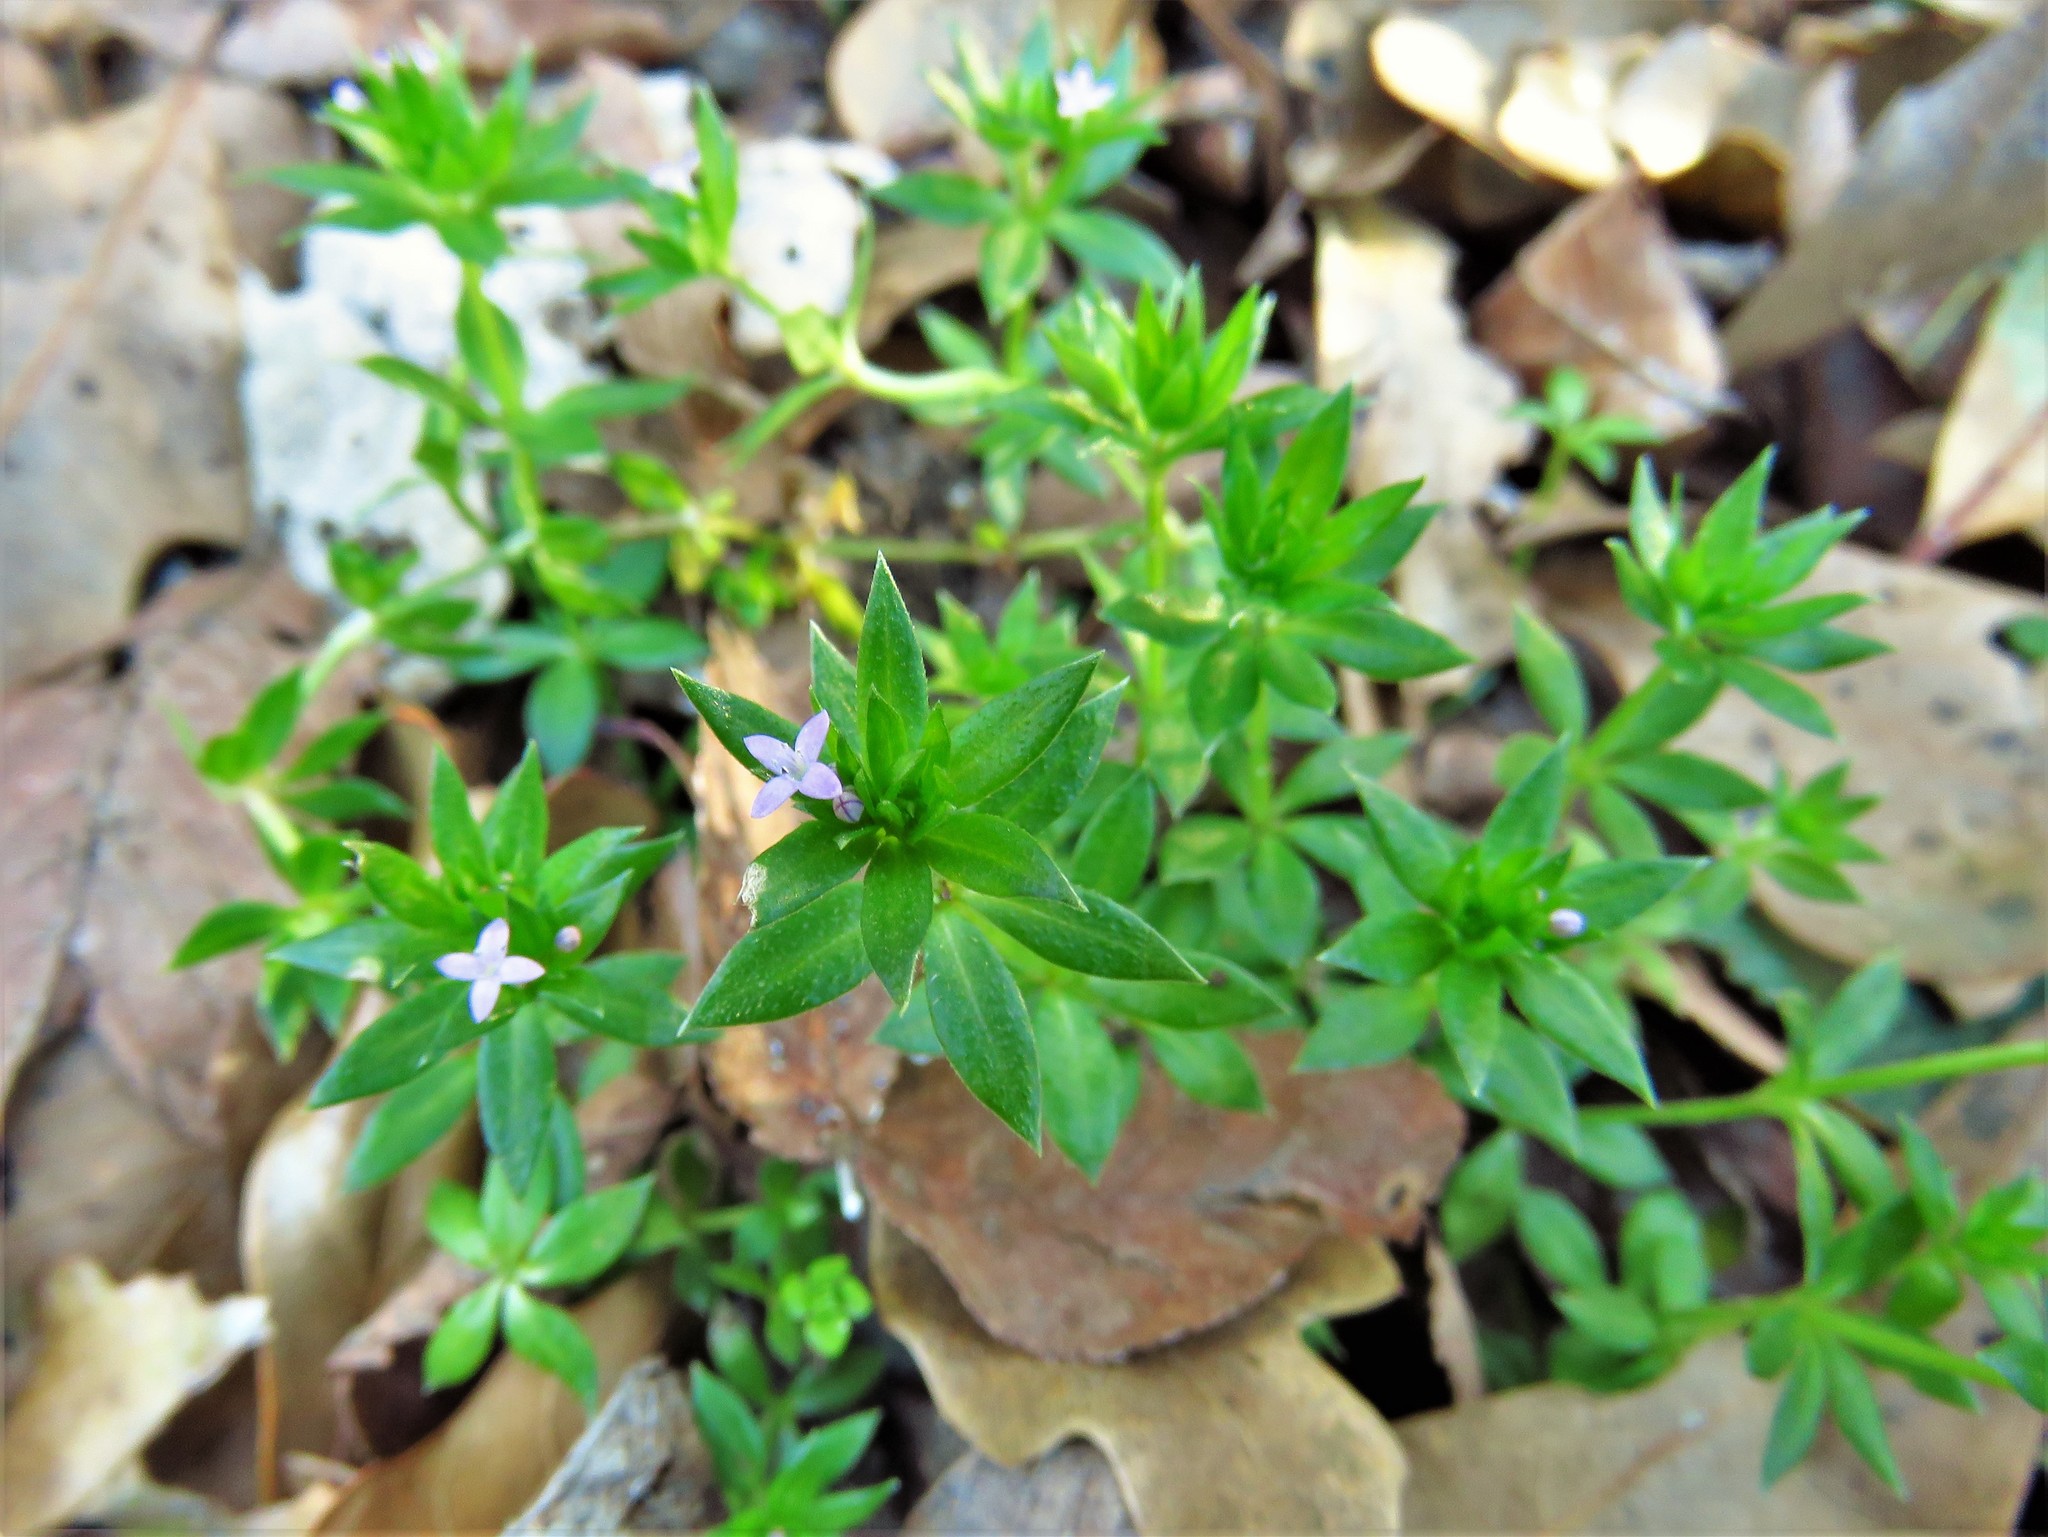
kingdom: Plantae
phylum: Tracheophyta
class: Magnoliopsida
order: Gentianales
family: Rubiaceae
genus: Sherardia
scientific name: Sherardia arvensis
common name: Field madder
